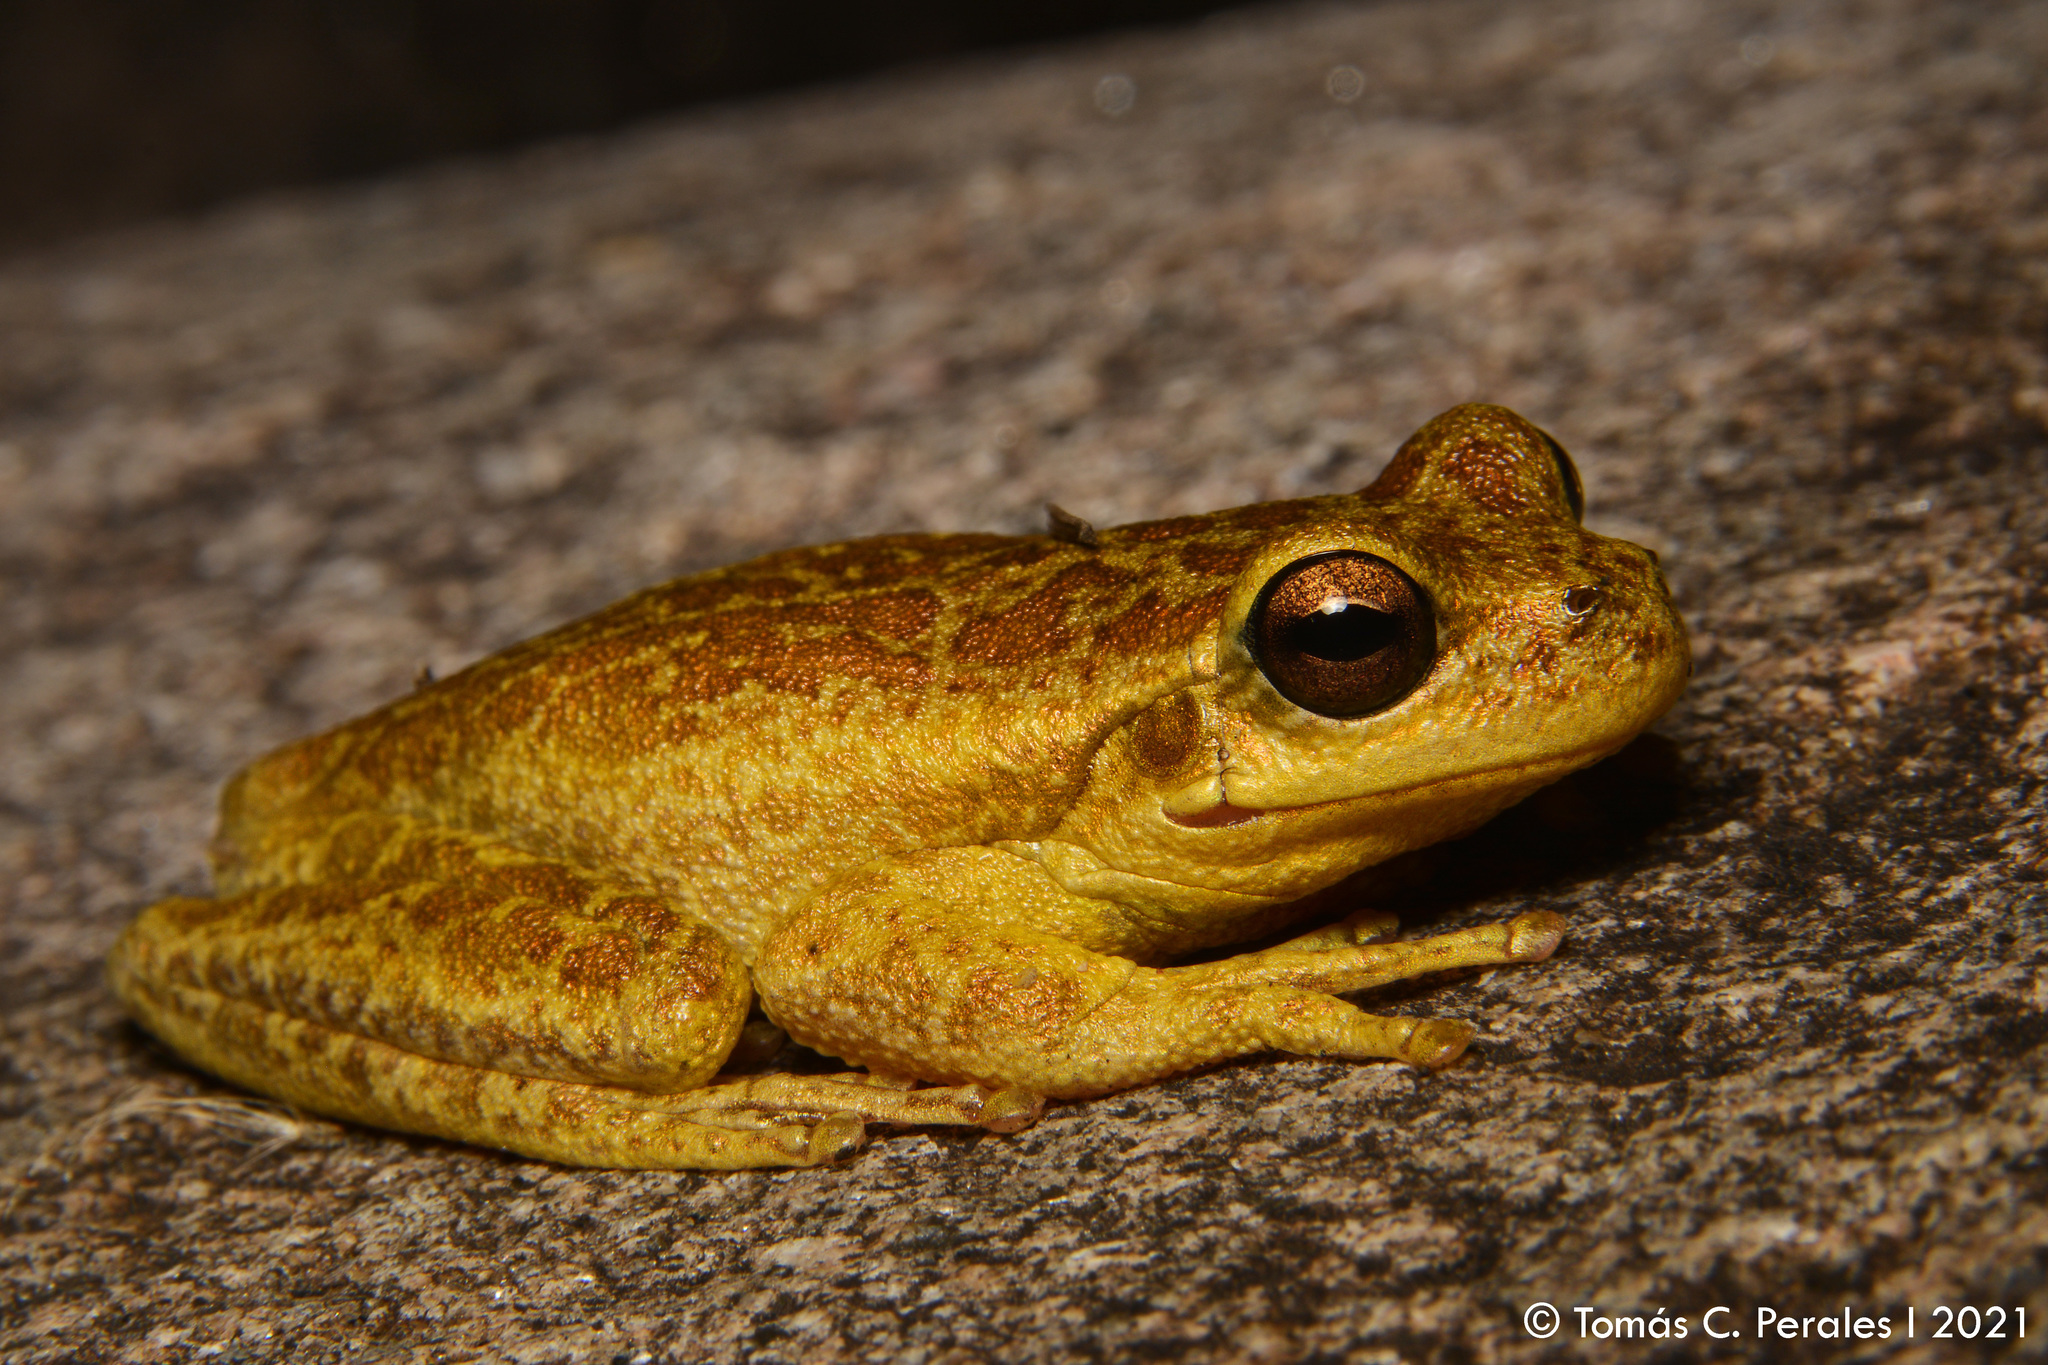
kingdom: Animalia
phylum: Chordata
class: Amphibia
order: Anura
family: Hylidae
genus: Boana
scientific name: Boana cordobae
